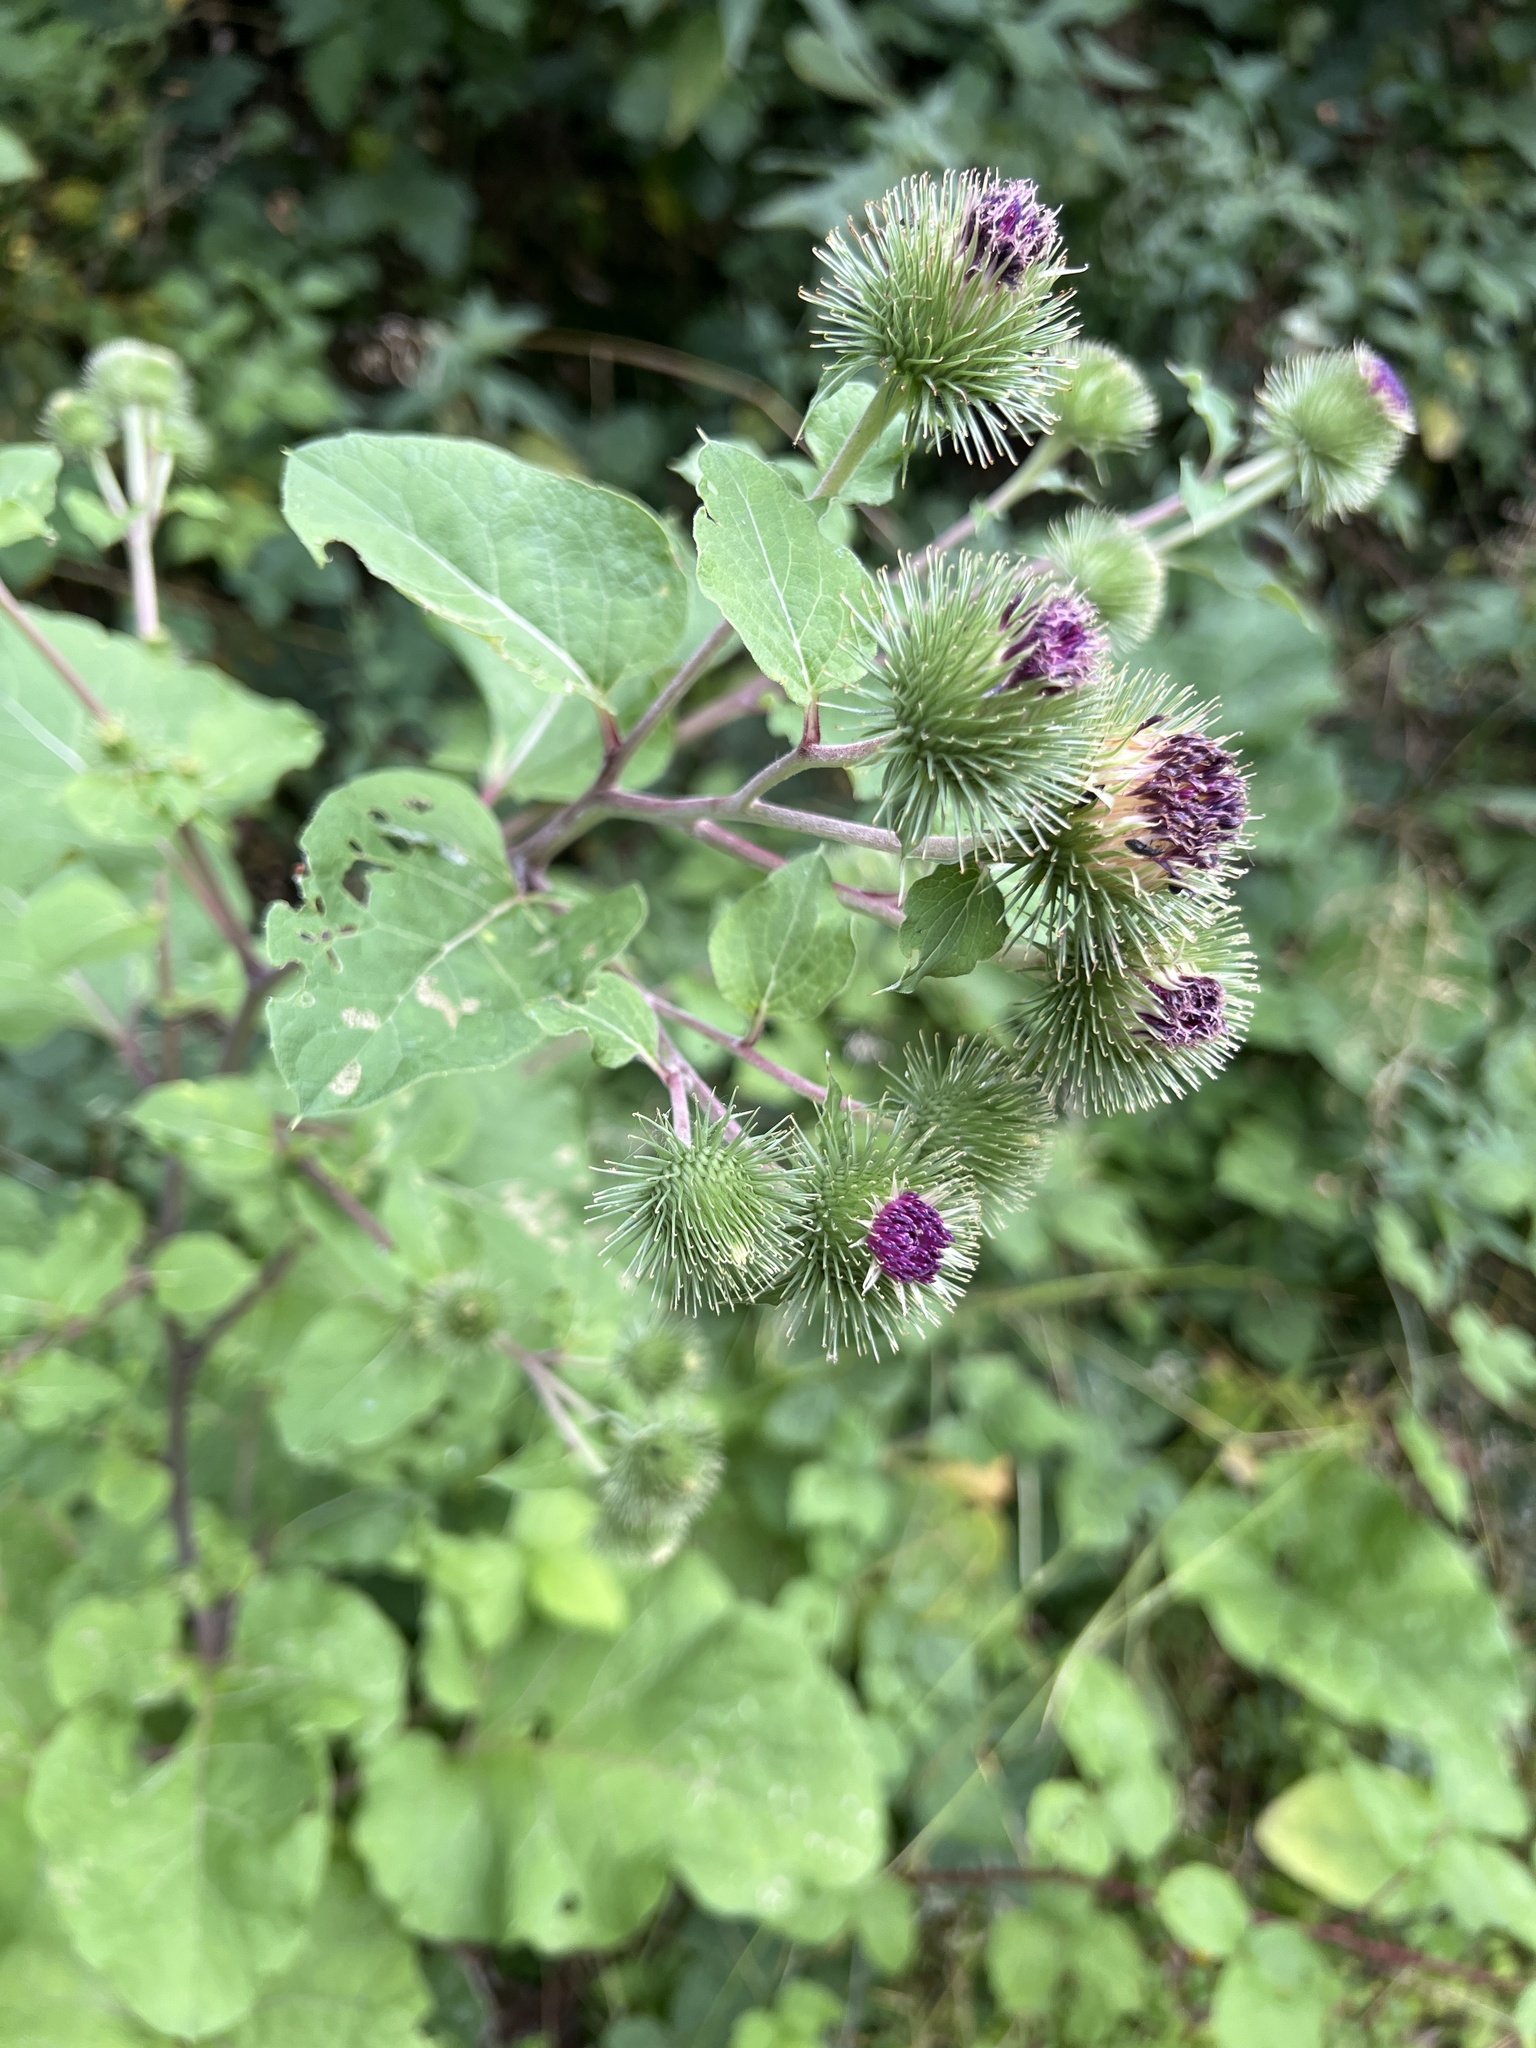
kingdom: Plantae
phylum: Tracheophyta
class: Magnoliopsida
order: Asterales
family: Asteraceae
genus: Arctium
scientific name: Arctium lappa
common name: Greater burdock
